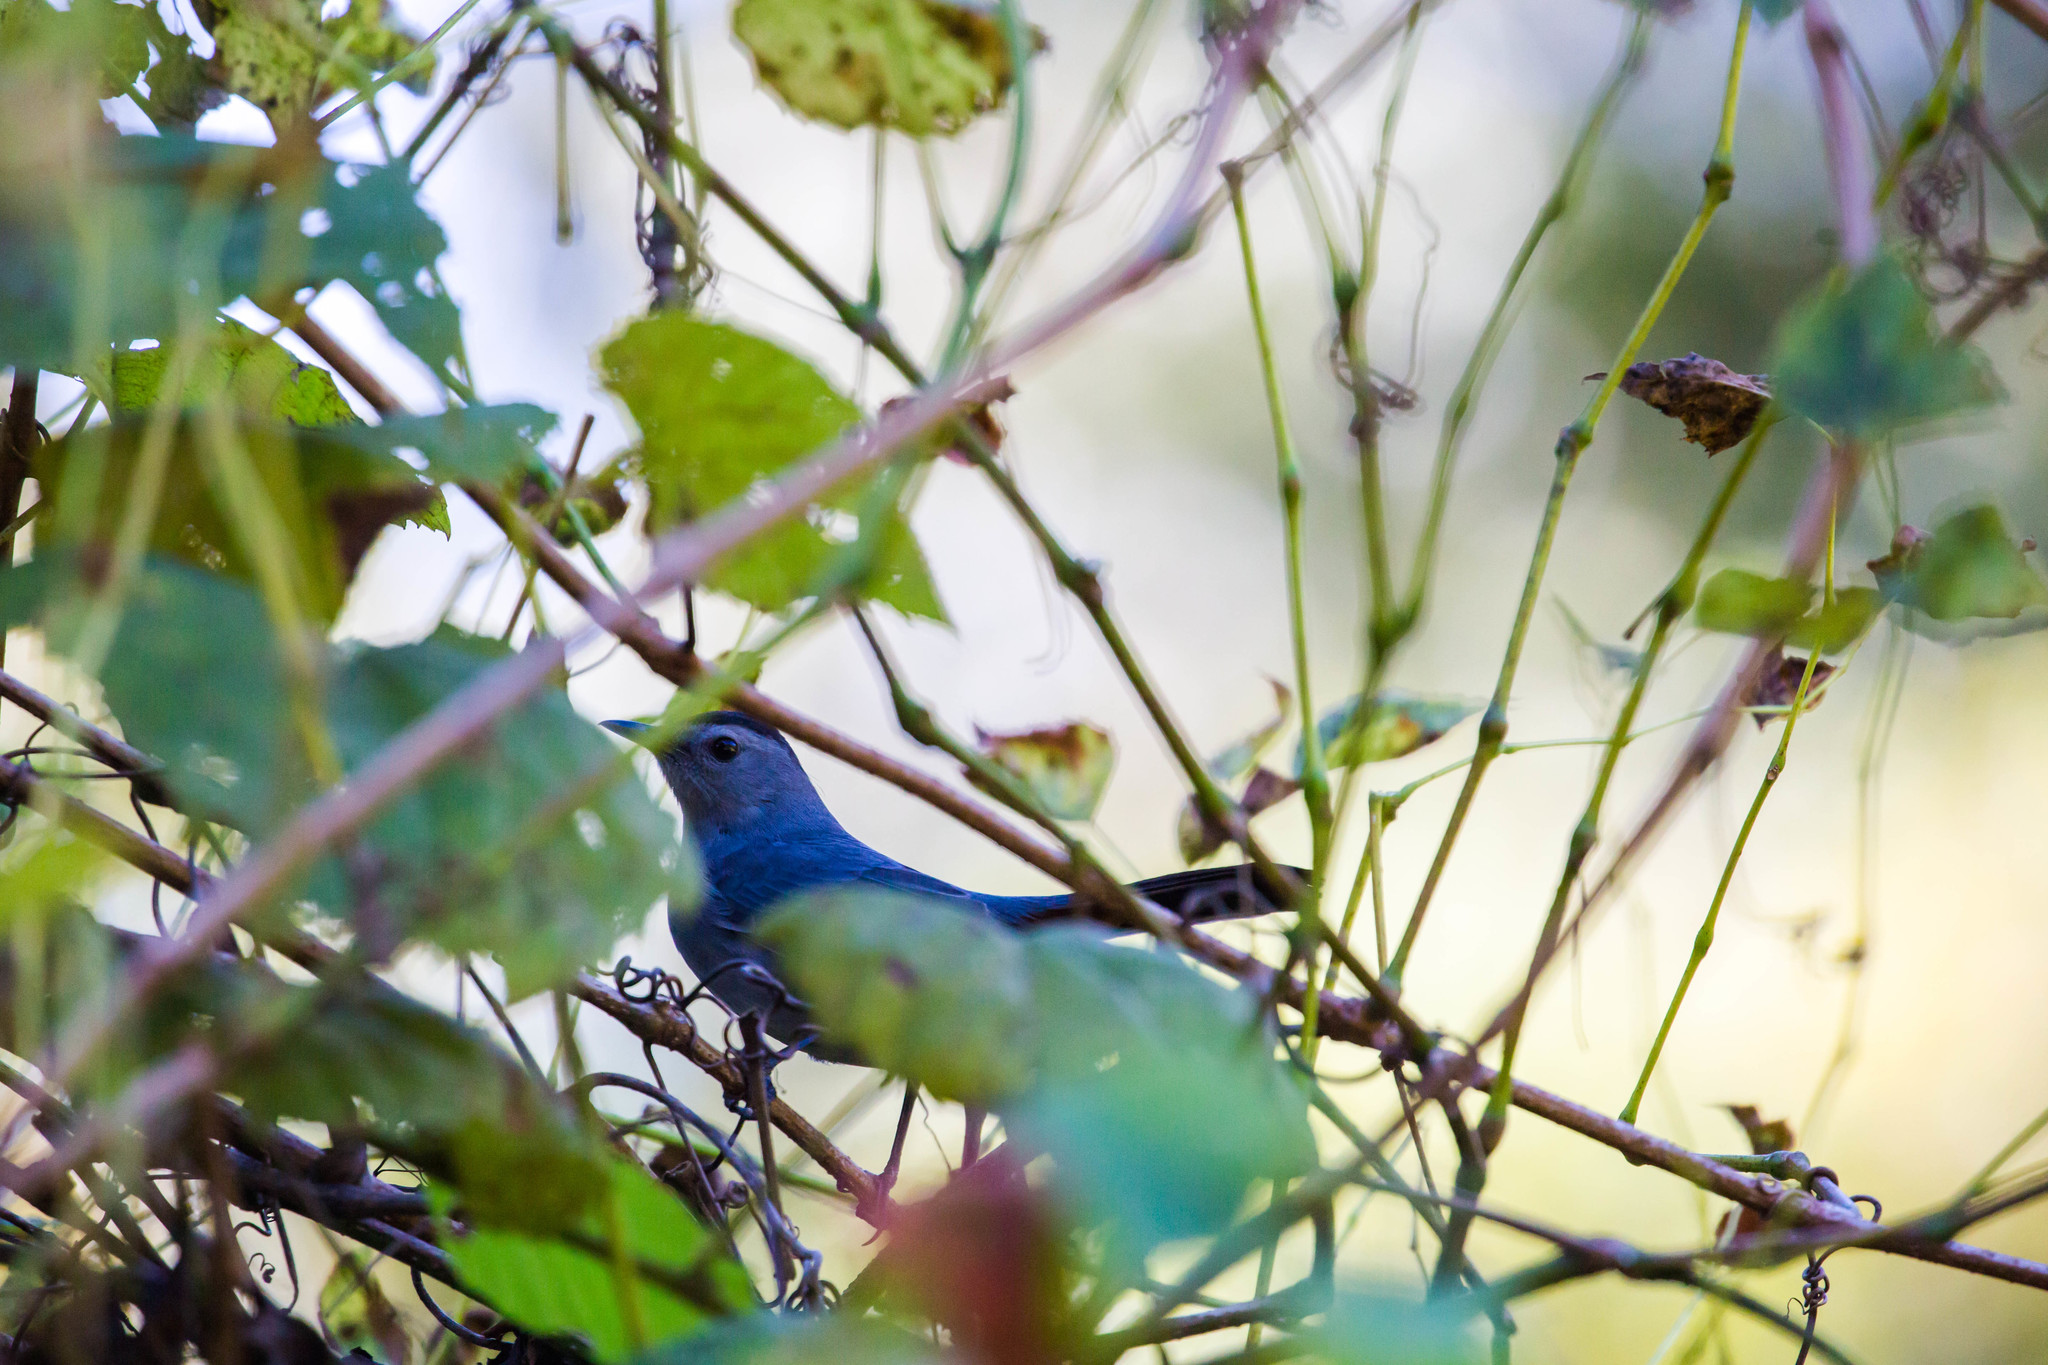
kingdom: Animalia
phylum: Chordata
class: Aves
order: Passeriformes
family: Mimidae
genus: Dumetella
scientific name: Dumetella carolinensis
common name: Gray catbird
